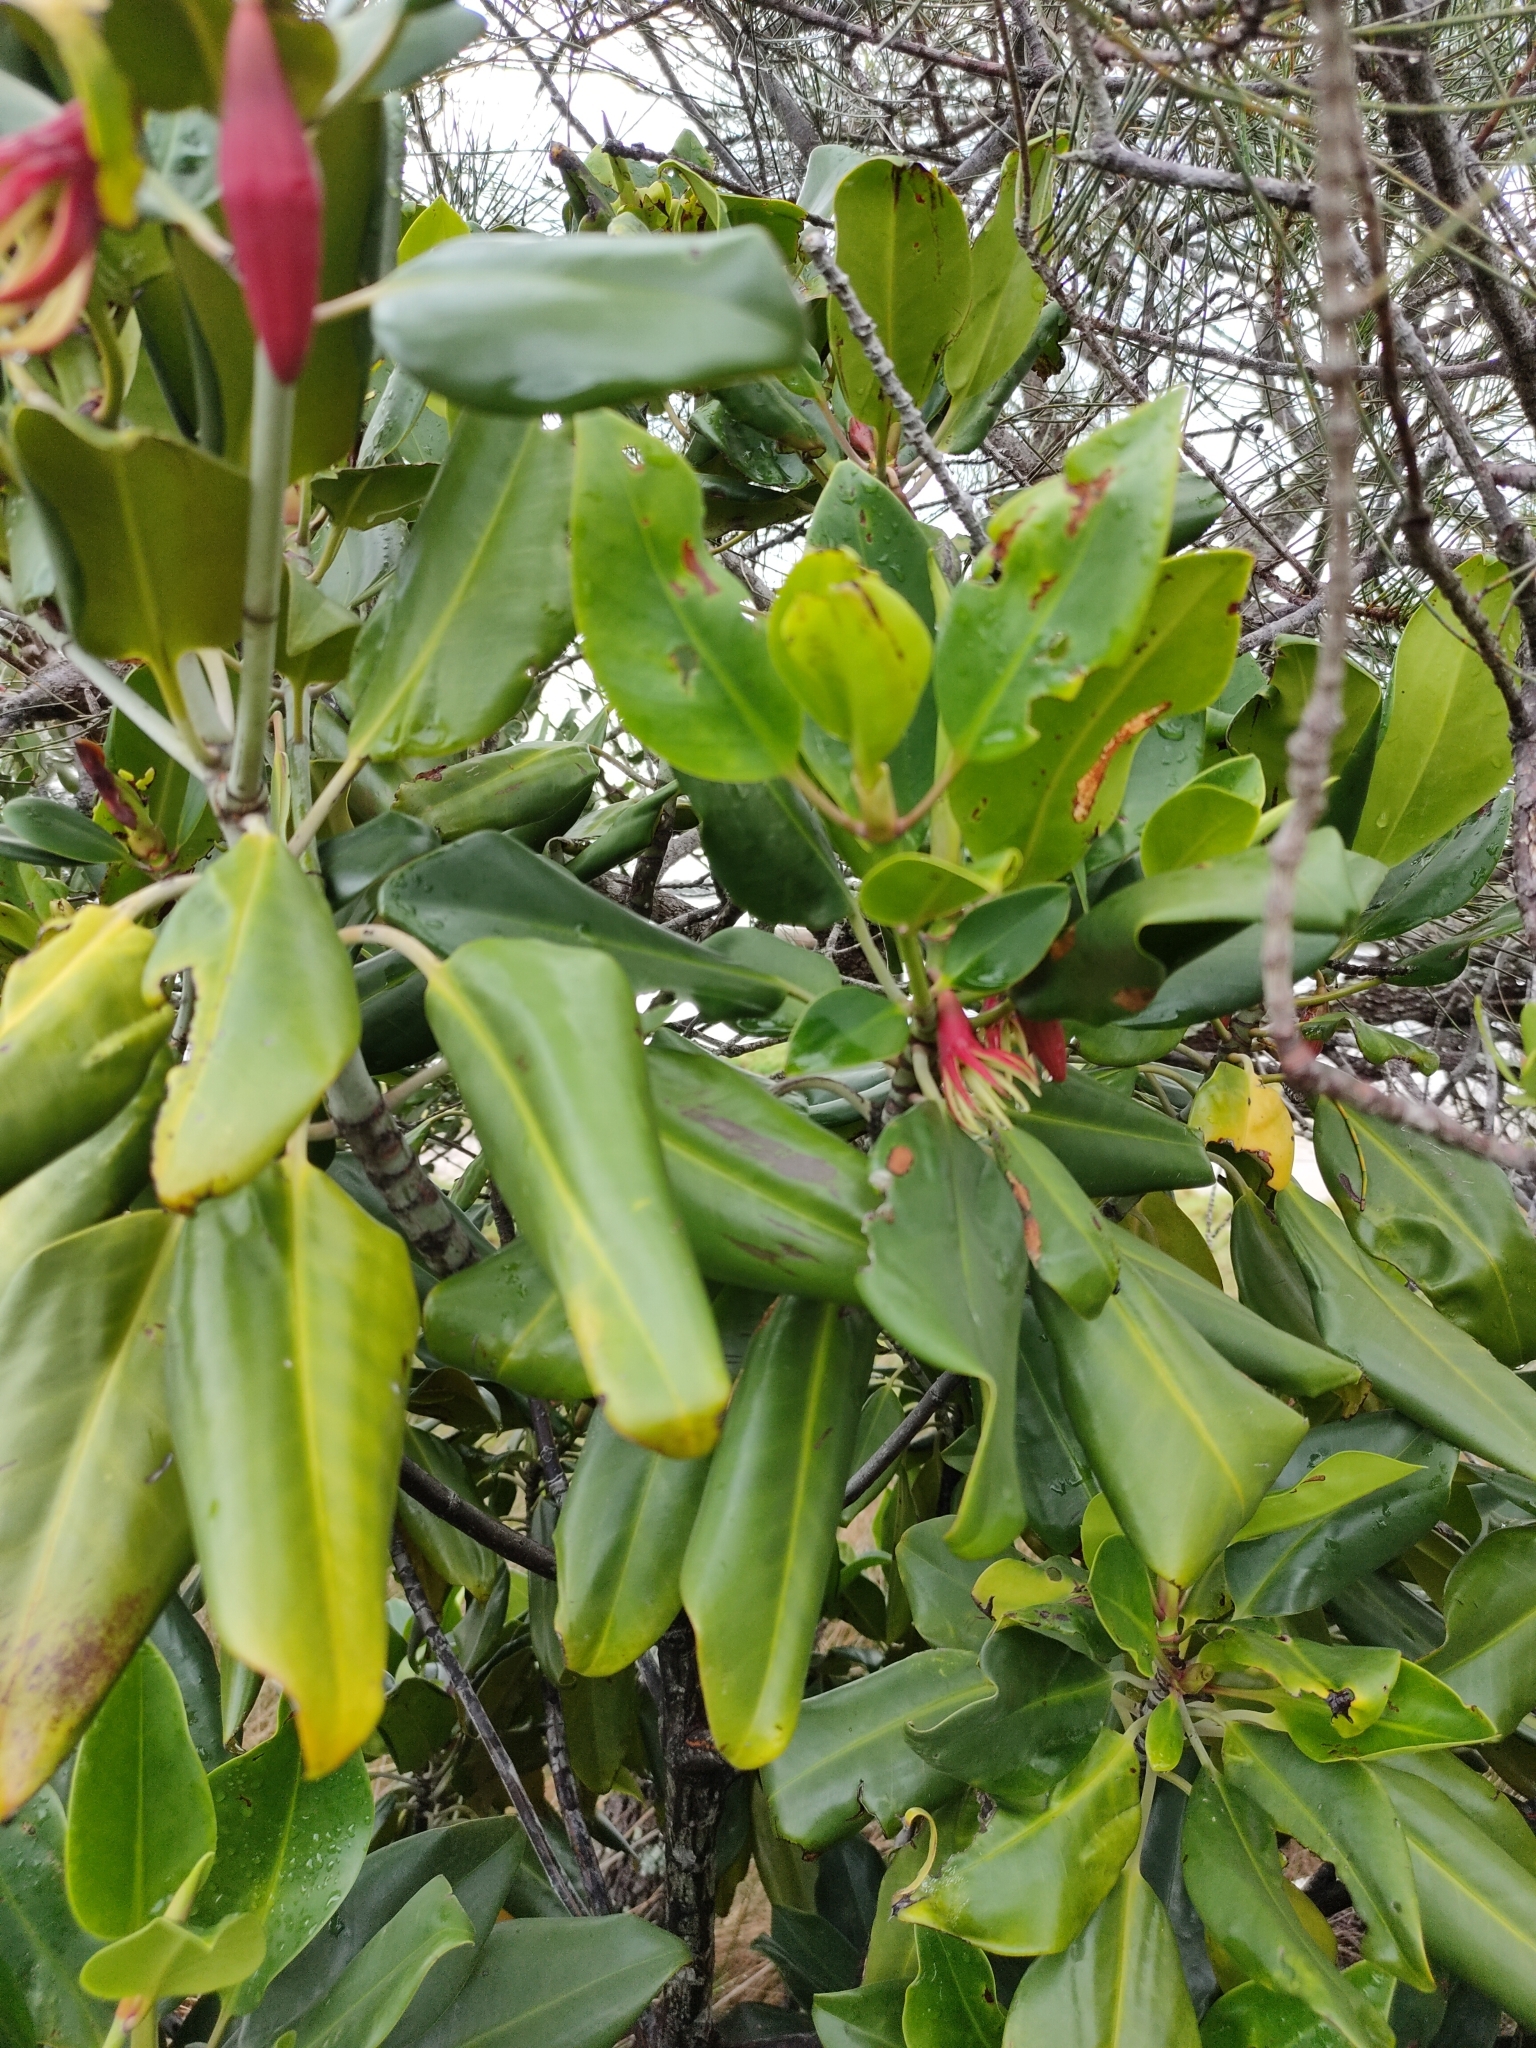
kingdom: Plantae
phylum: Tracheophyta
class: Magnoliopsida
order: Malpighiales
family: Rhizophoraceae
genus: Bruguiera
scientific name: Bruguiera gymnorhiza
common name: Oriental mangrove
